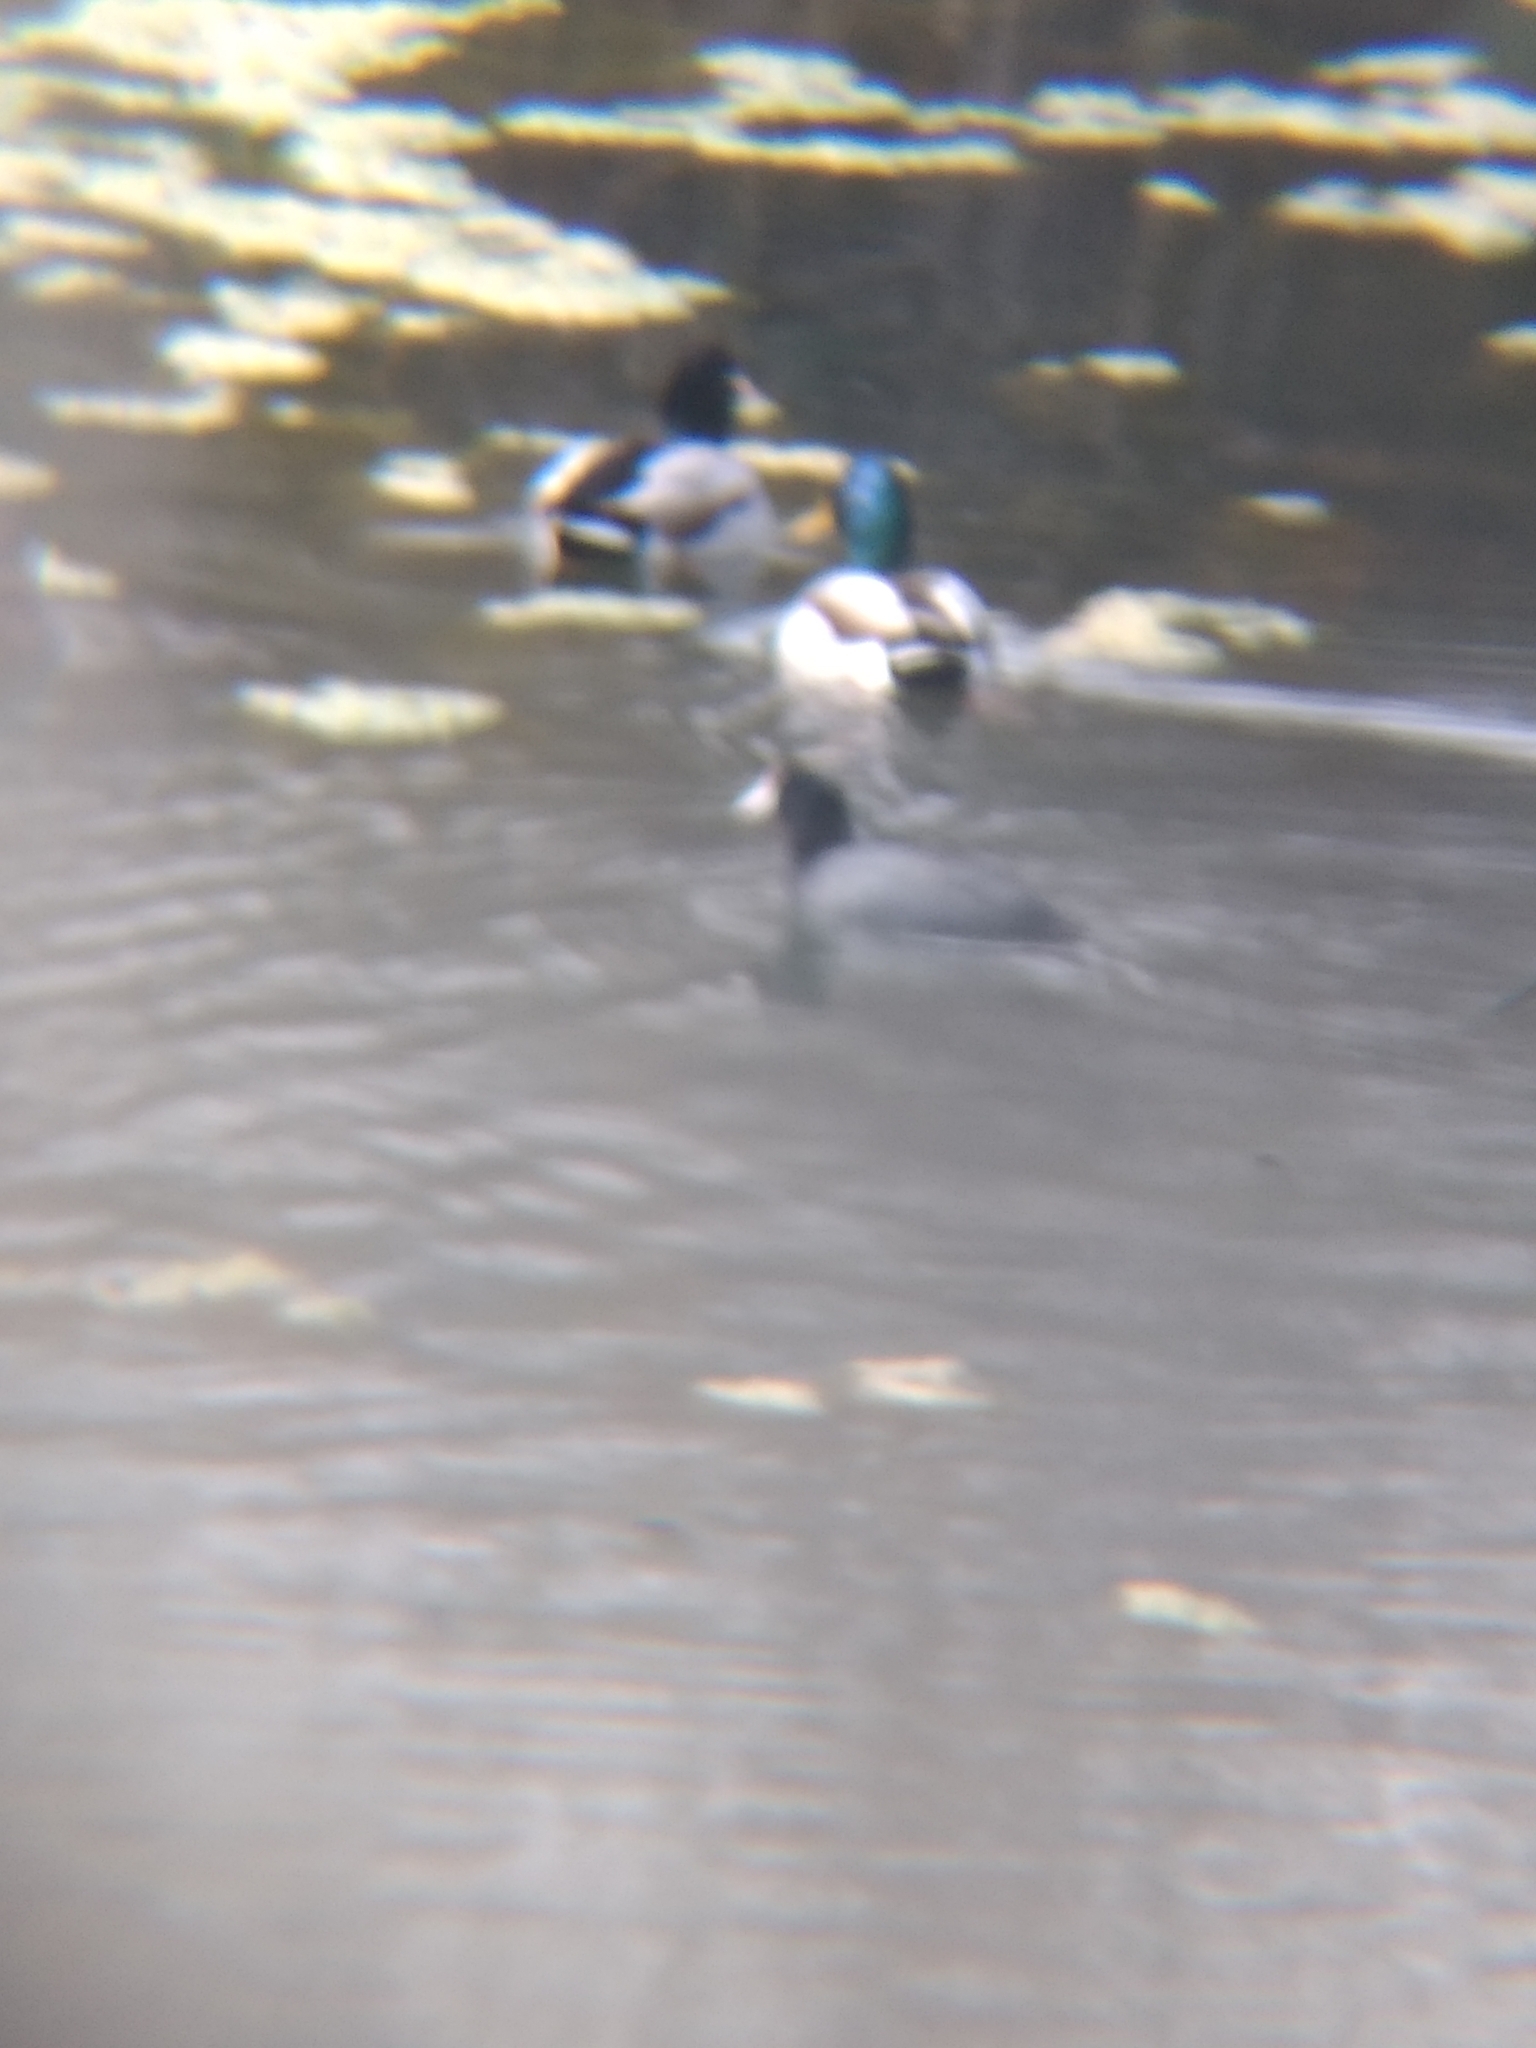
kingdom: Animalia
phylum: Chordata
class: Aves
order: Gruiformes
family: Rallidae
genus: Fulica
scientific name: Fulica americana
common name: American coot
